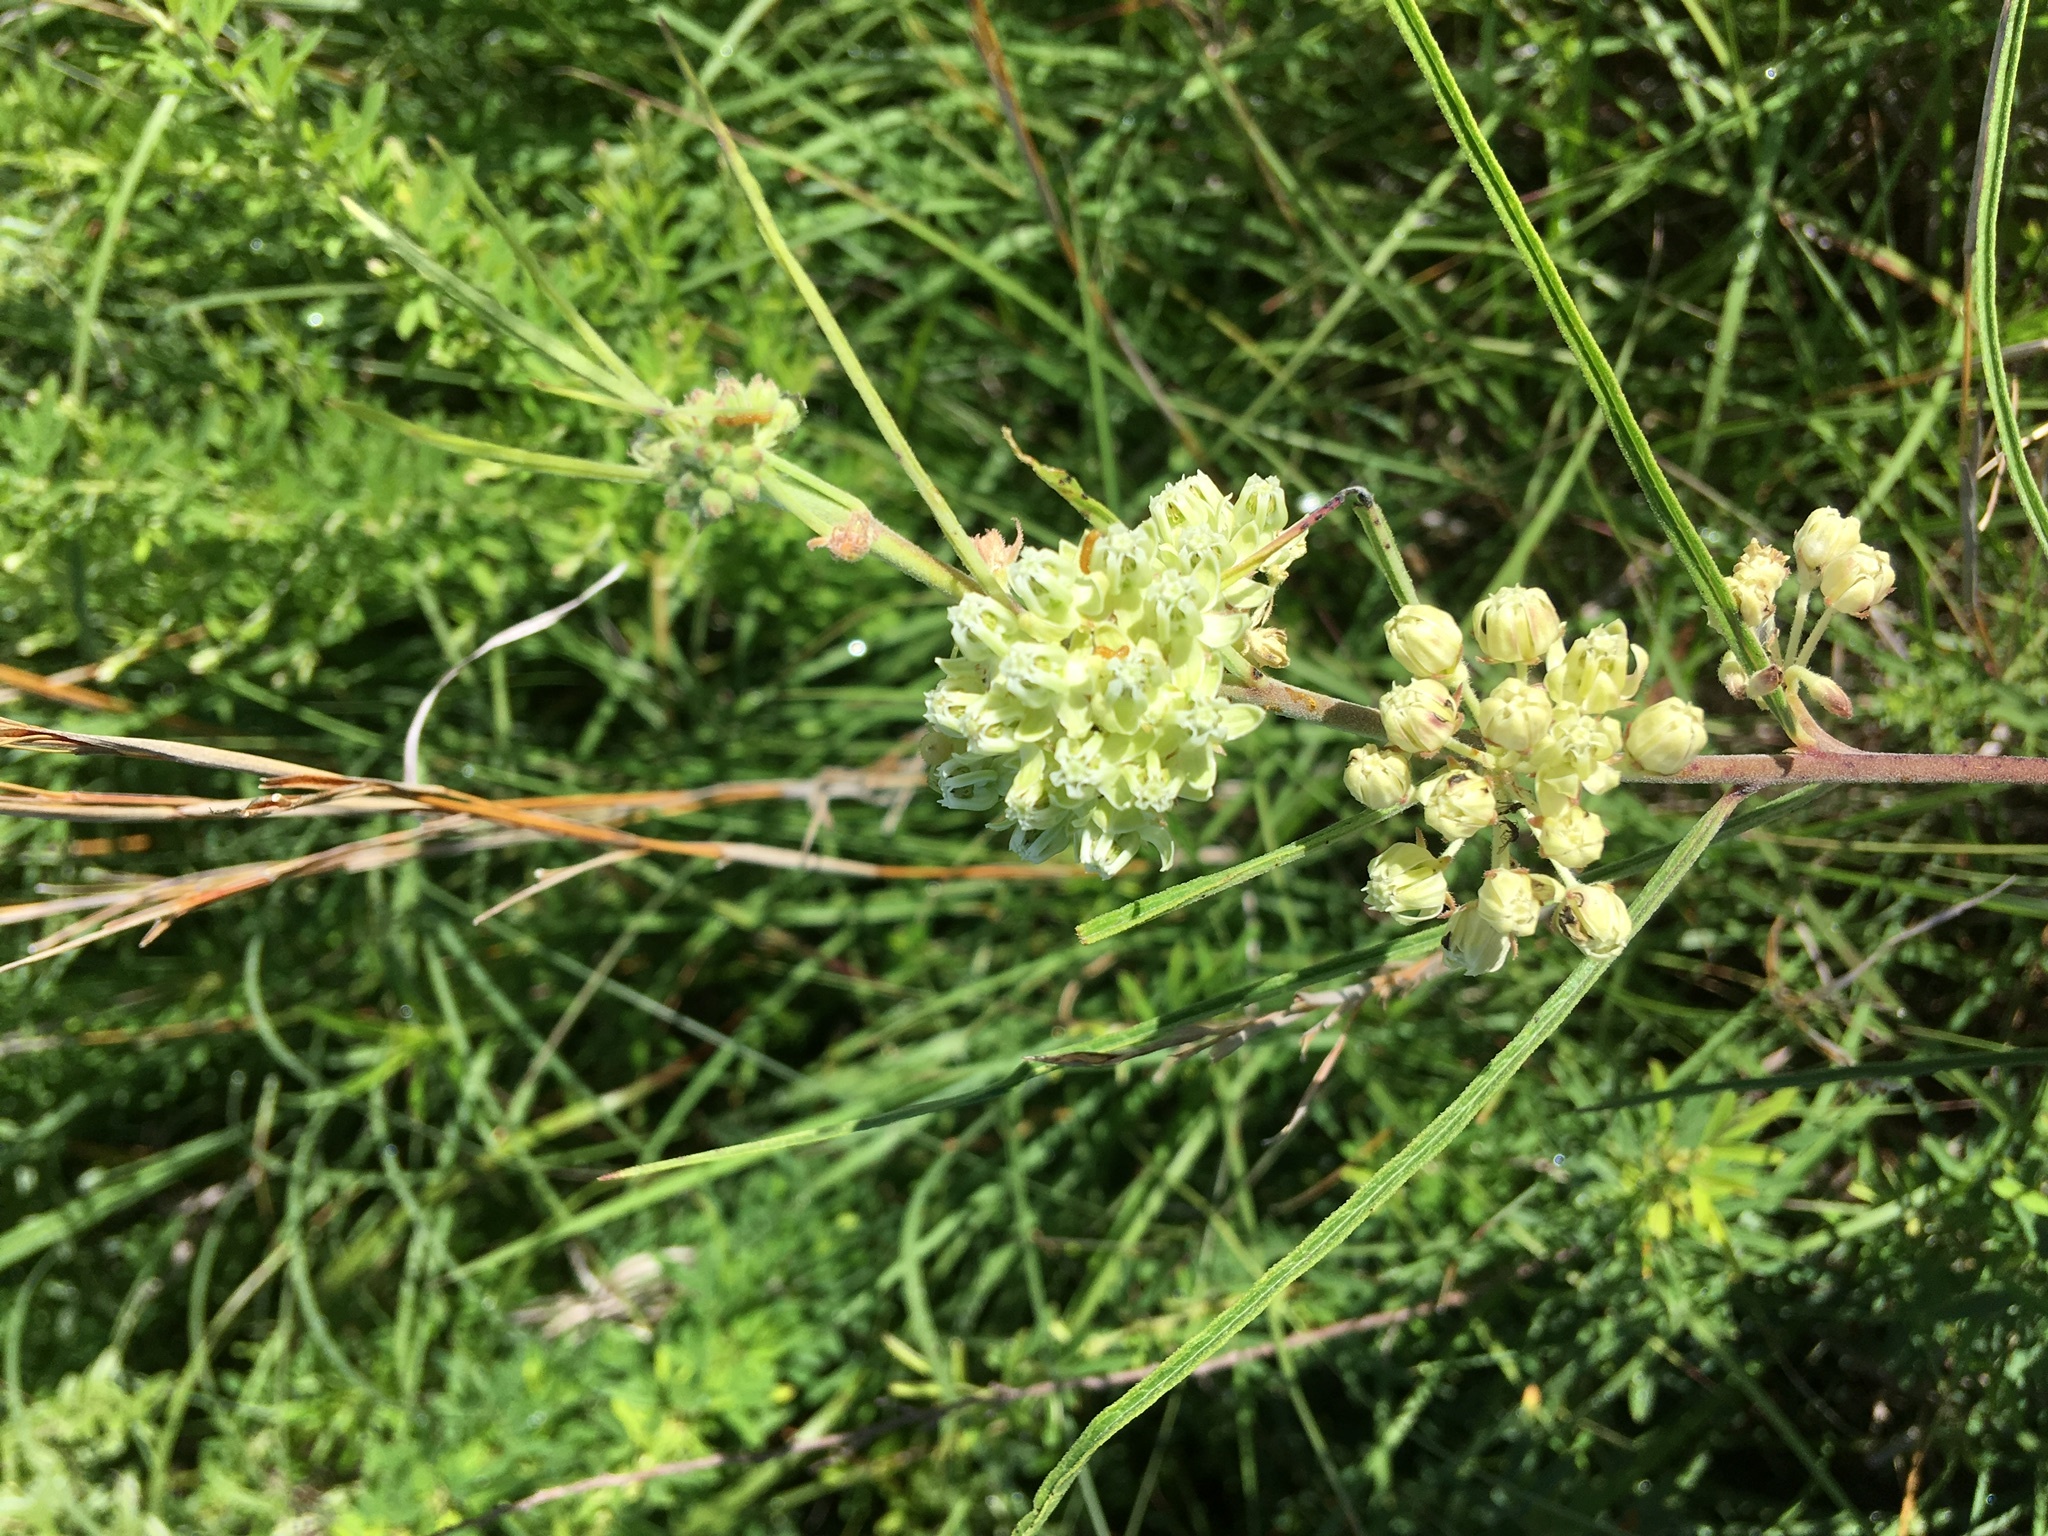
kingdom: Plantae
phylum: Tracheophyta
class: Magnoliopsida
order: Gentianales
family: Apocynaceae
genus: Asclepias
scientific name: Asclepias stenophylla
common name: Narrow-leaf milkweed
